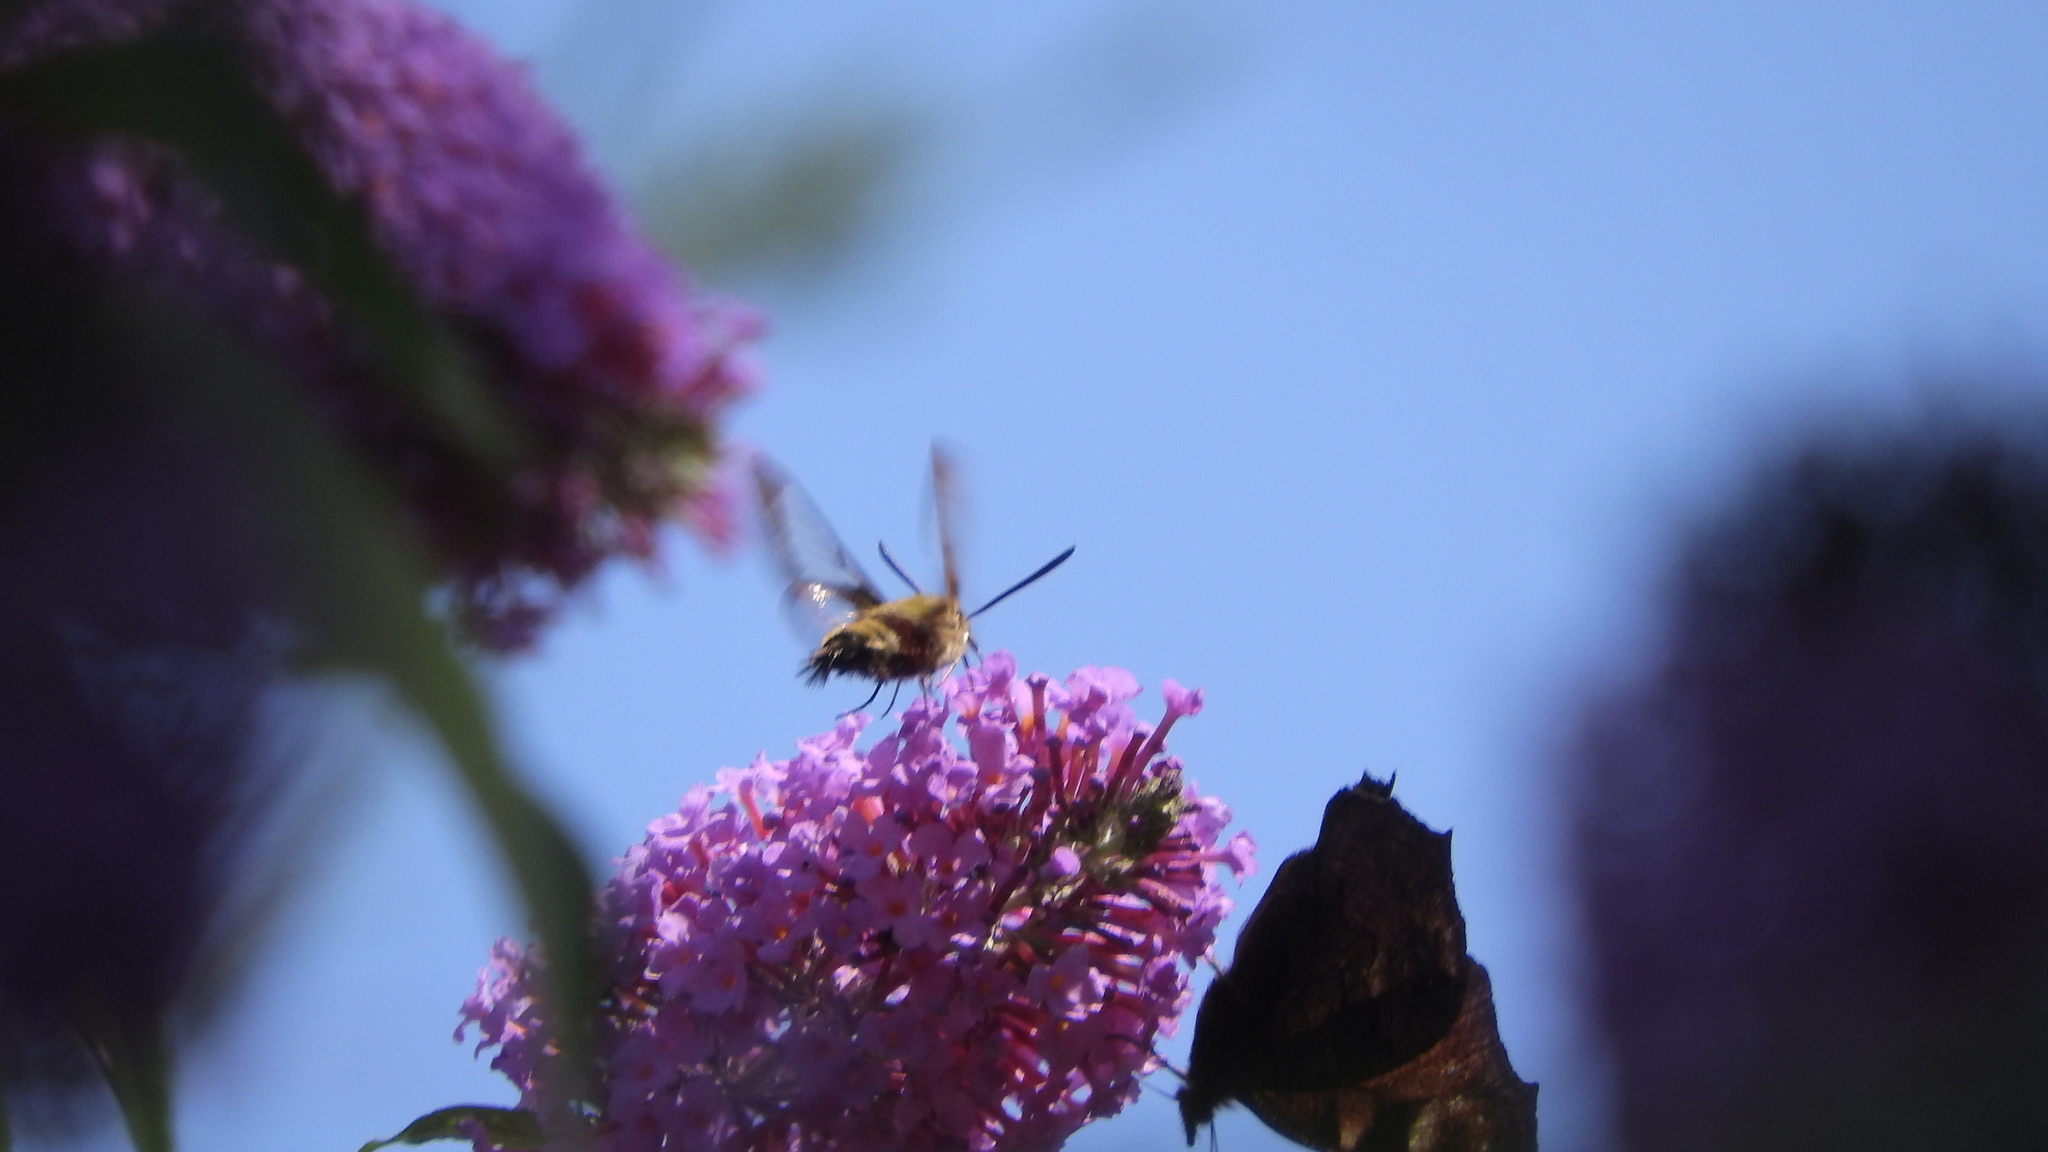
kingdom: Animalia
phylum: Arthropoda
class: Insecta
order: Lepidoptera
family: Sphingidae
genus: Hemaris
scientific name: Hemaris fuciformis
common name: Broad-bordered bee hawk-moth
